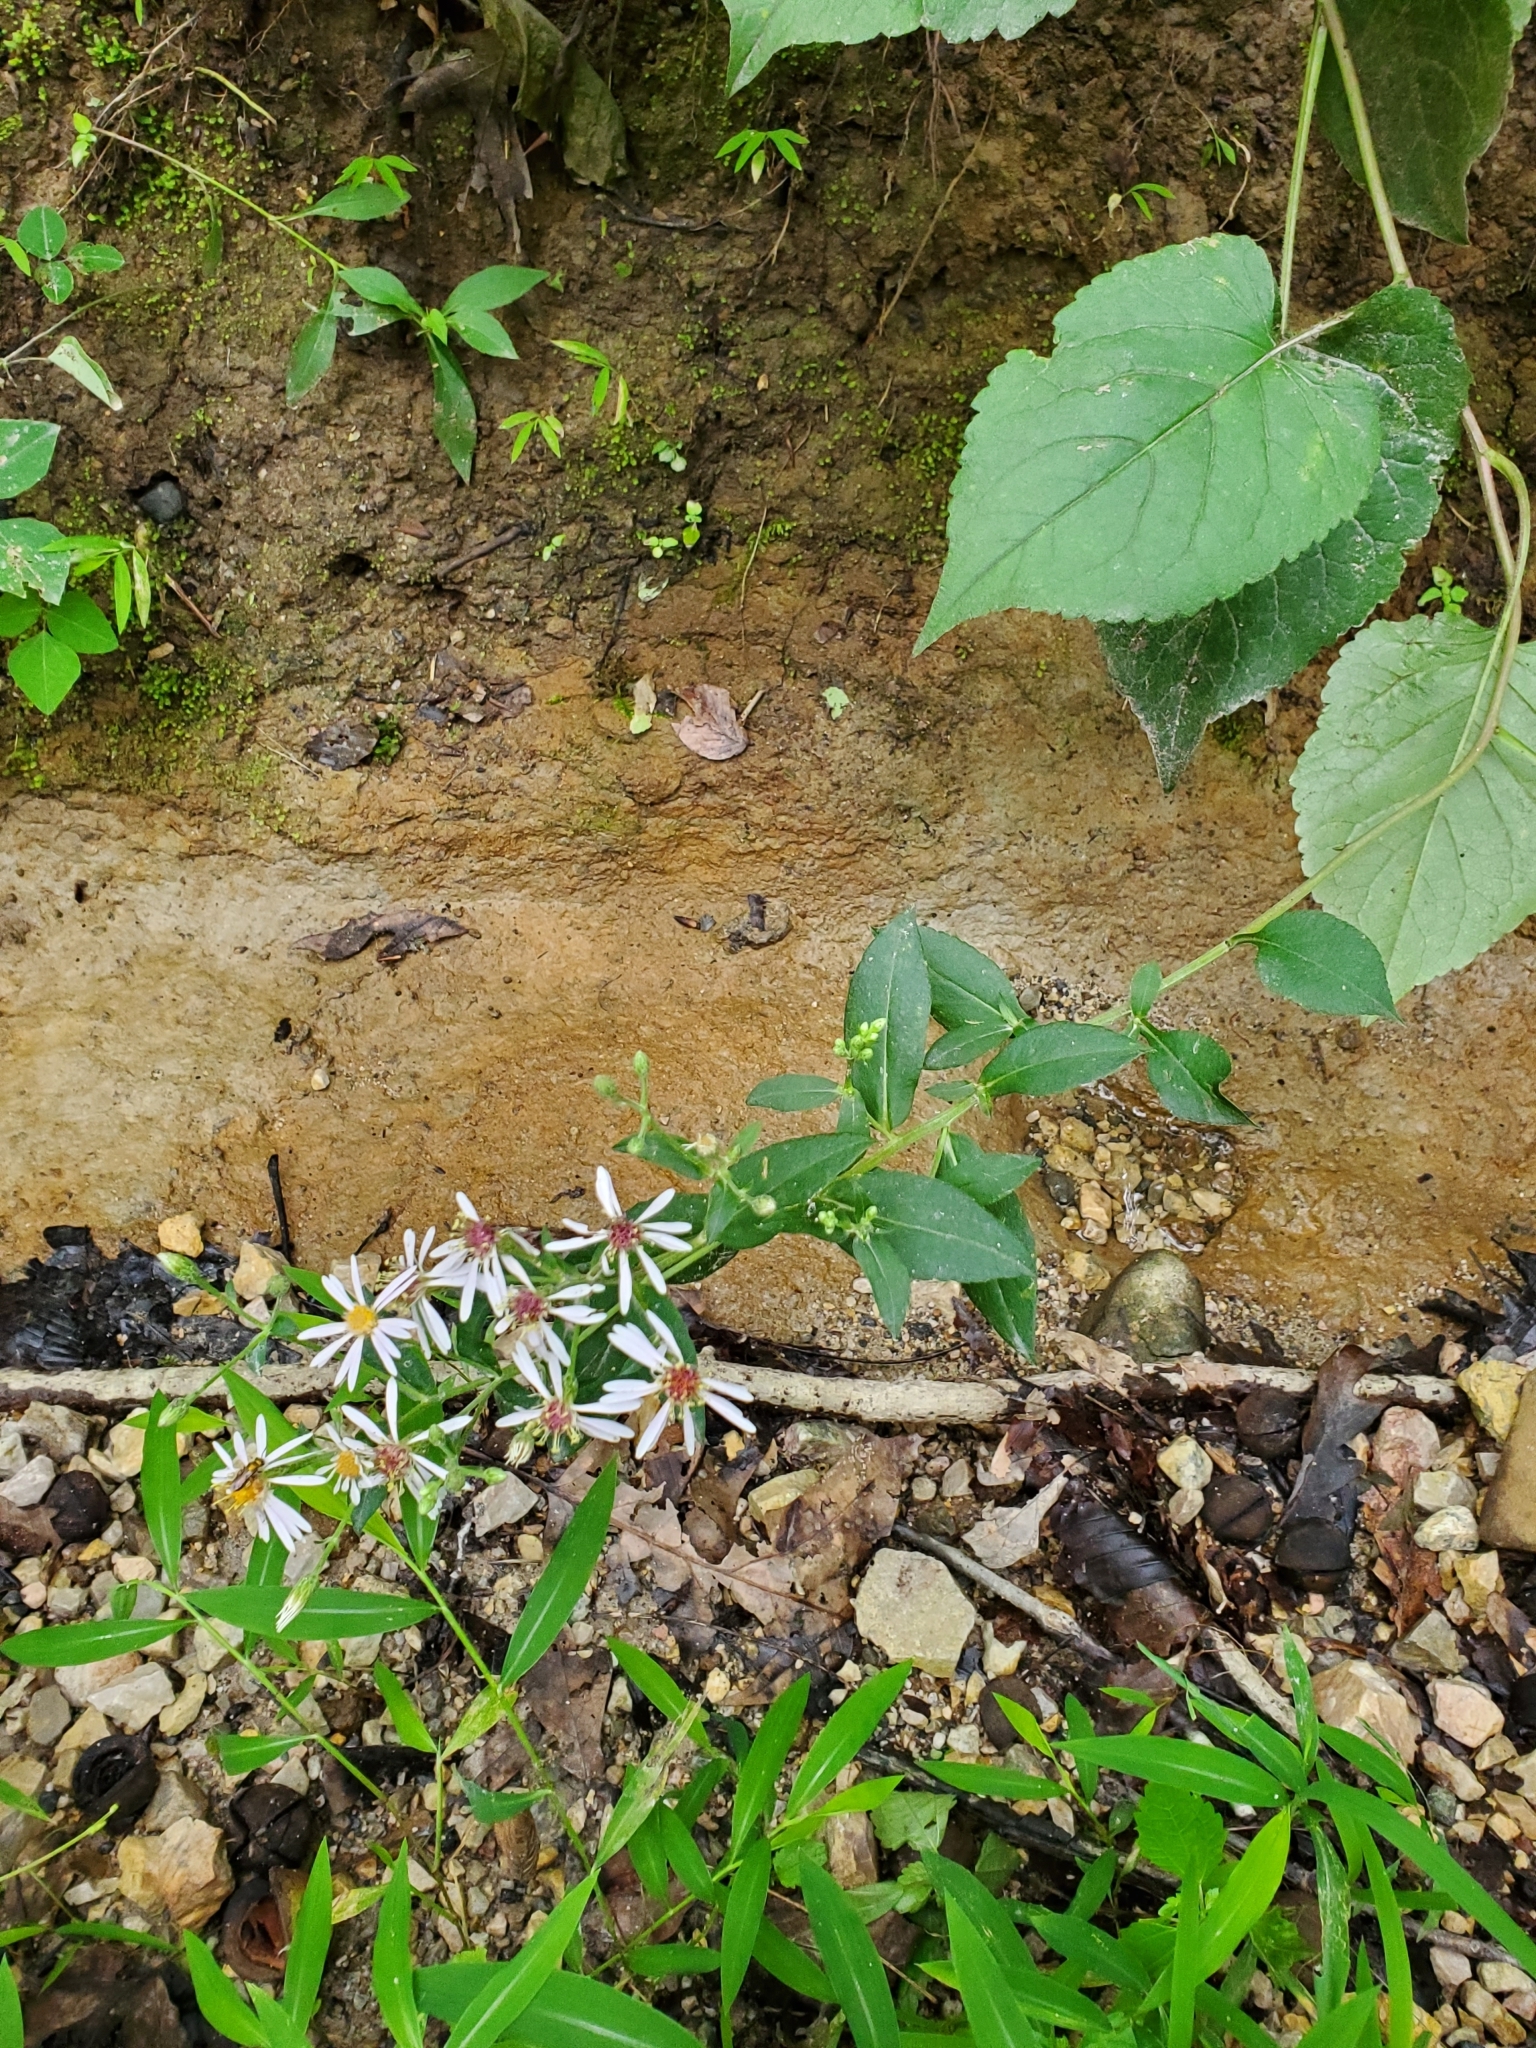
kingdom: Plantae
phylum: Tracheophyta
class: Magnoliopsida
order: Asterales
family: Asteraceae
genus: Eurybia
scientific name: Eurybia divaricata
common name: White wood aster
